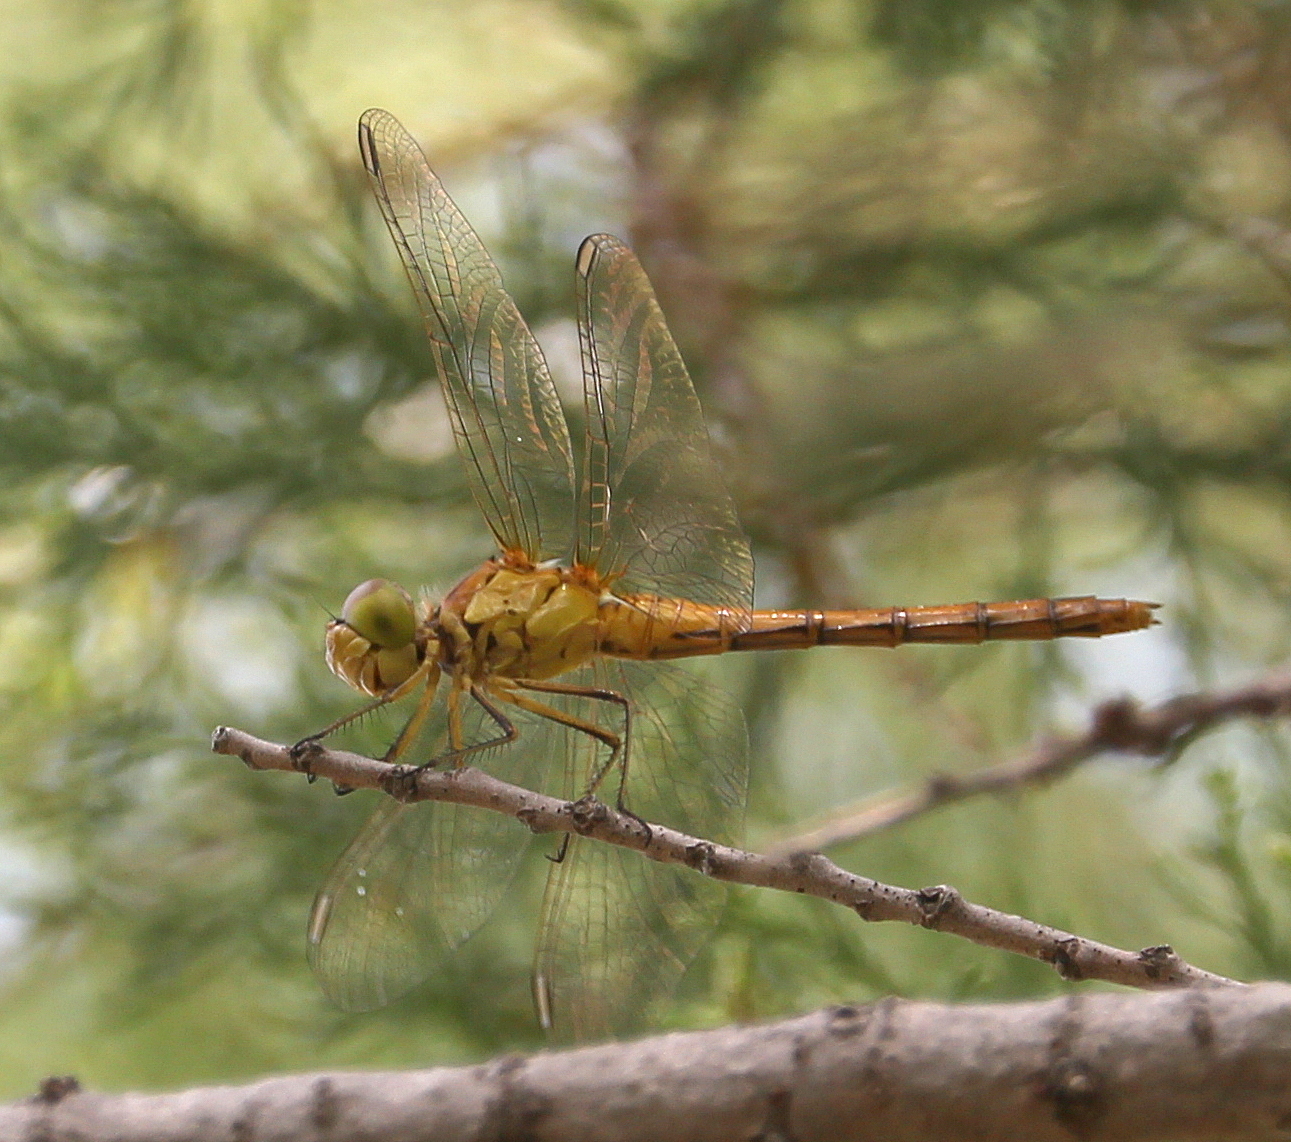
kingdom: Animalia
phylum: Arthropoda
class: Insecta
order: Odonata
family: Libellulidae
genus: Sympetrum
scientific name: Sympetrum meridionale
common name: Southern darter
